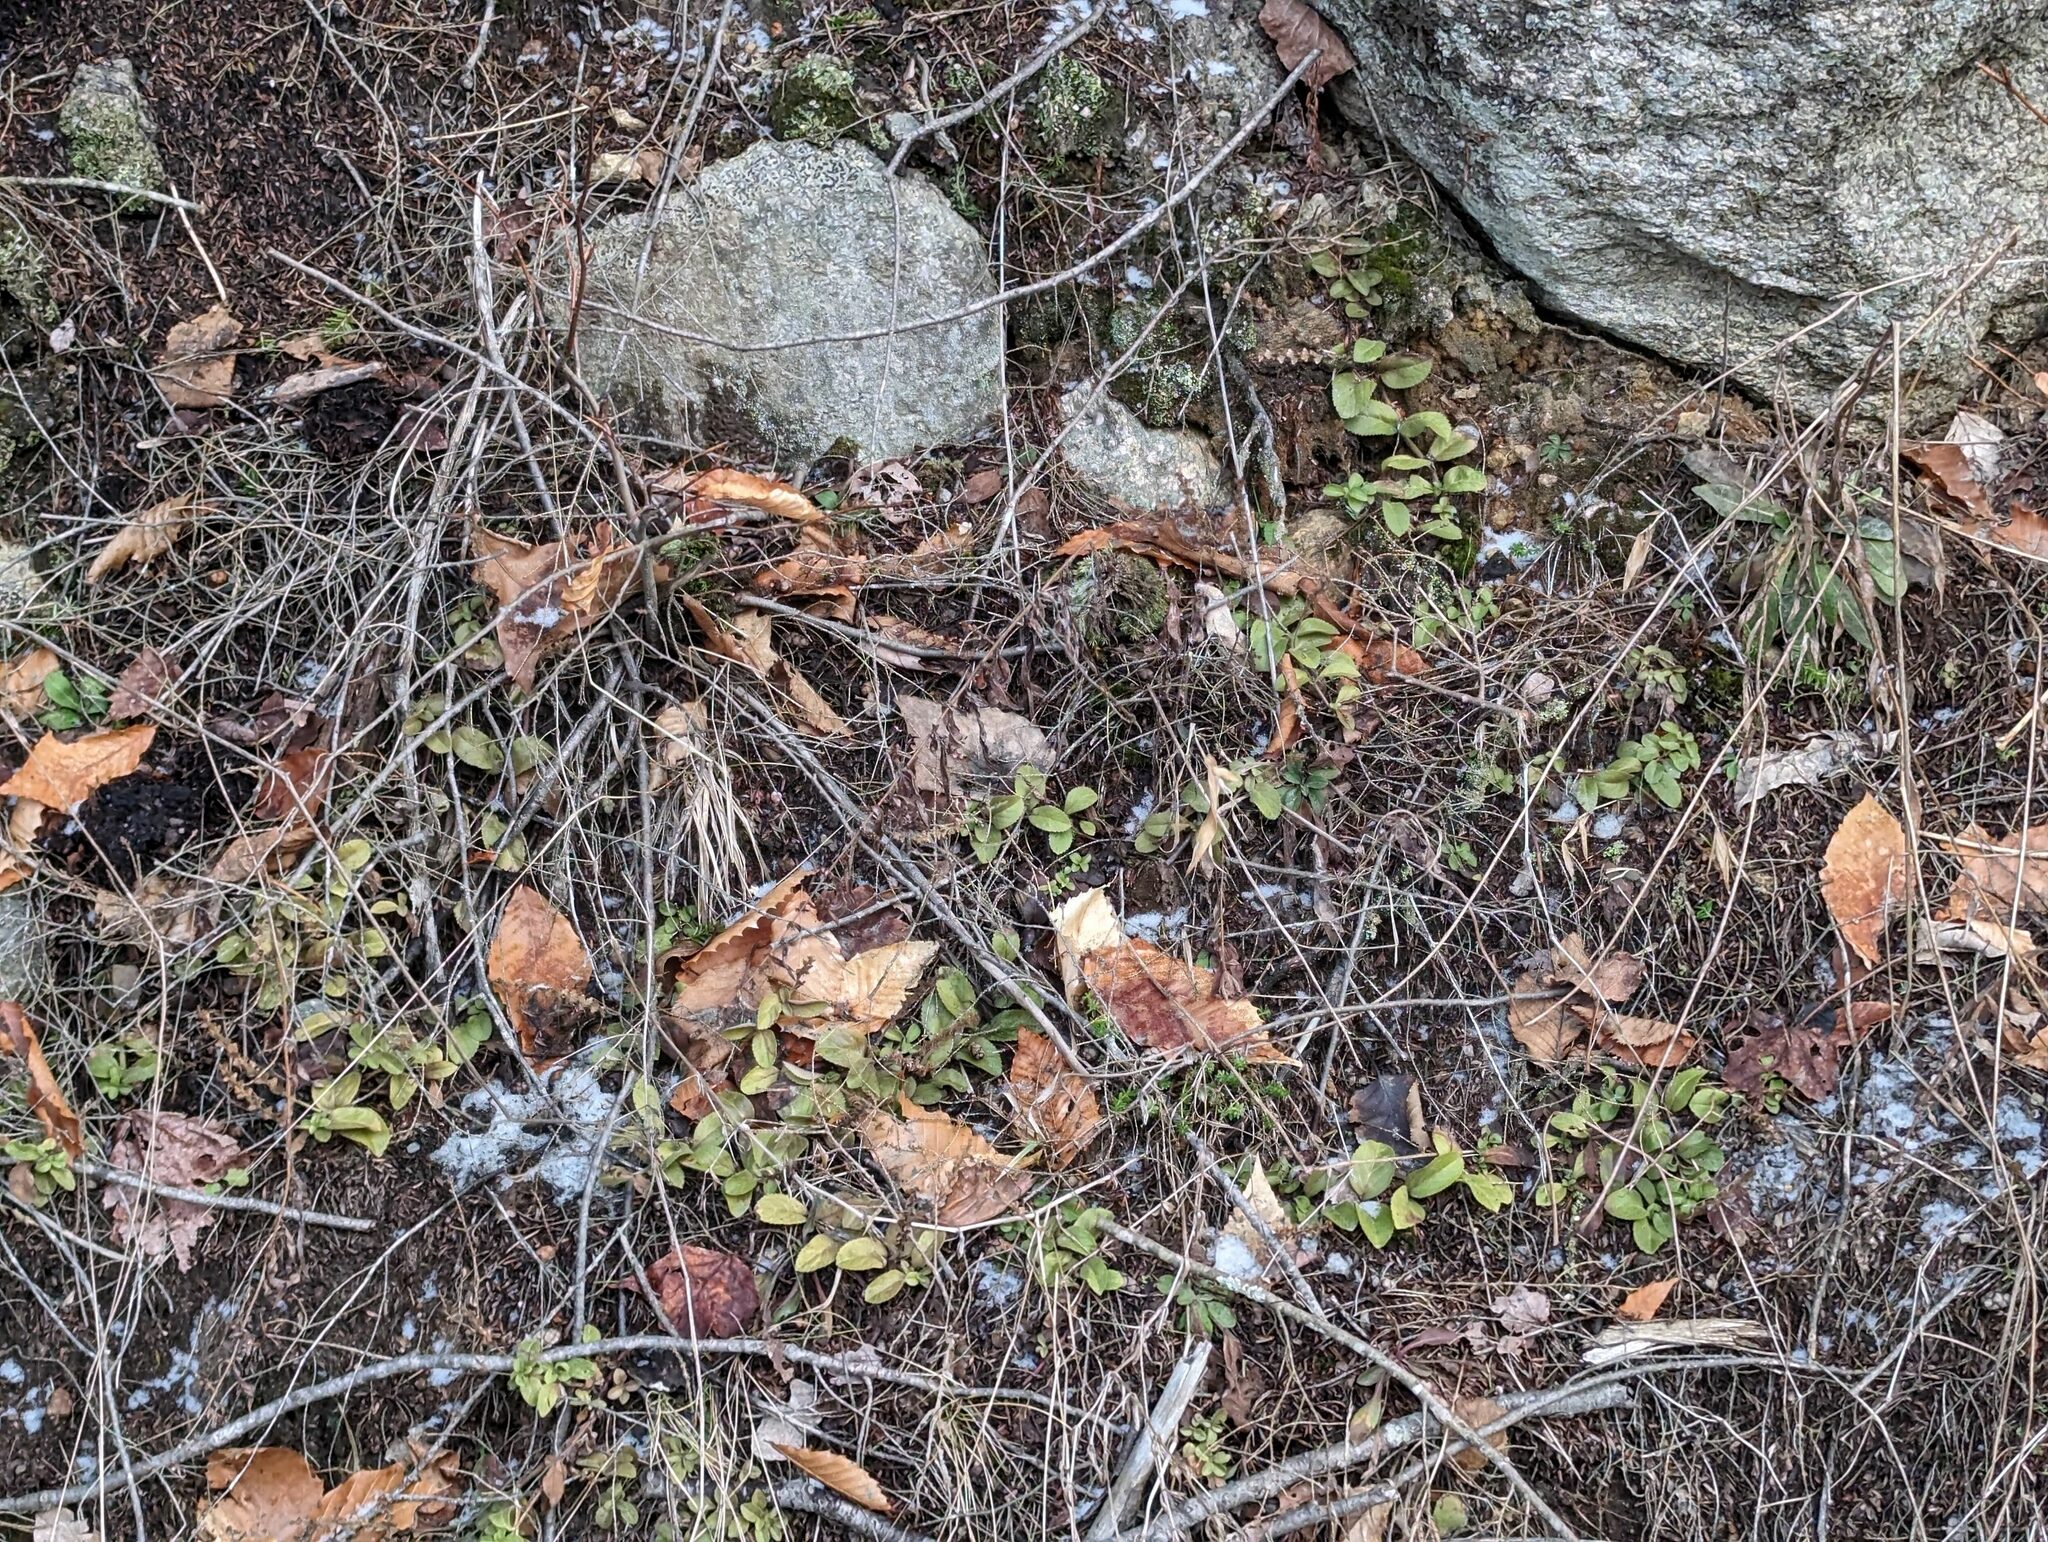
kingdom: Plantae
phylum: Tracheophyta
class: Magnoliopsida
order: Lamiales
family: Plantaginaceae
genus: Veronica
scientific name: Veronica officinalis
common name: Common speedwell
